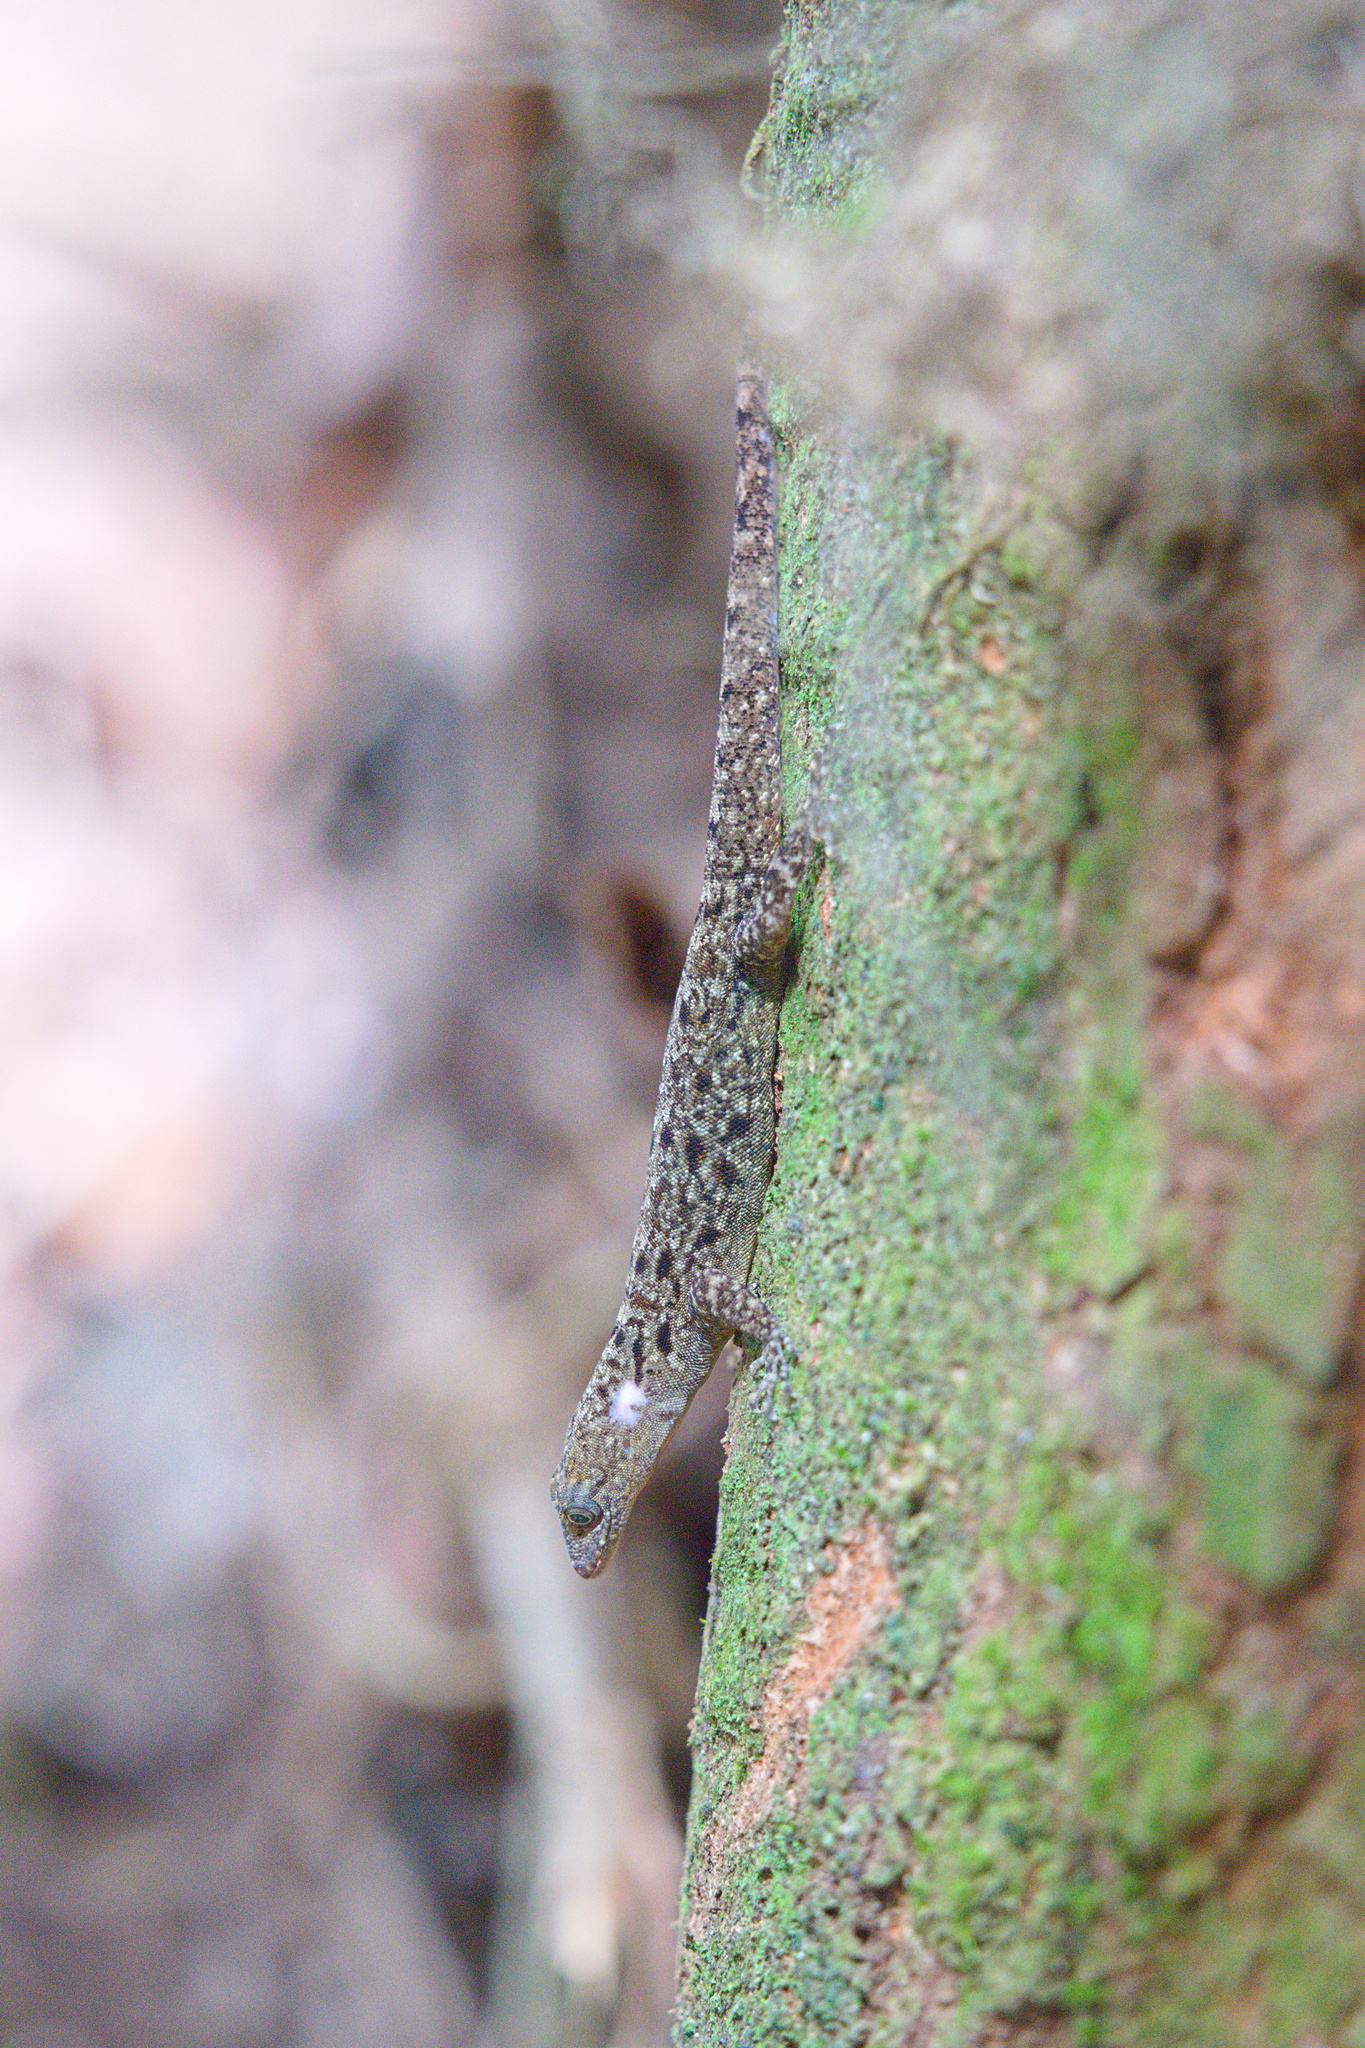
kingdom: Animalia
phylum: Chordata
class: Squamata
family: Sphaerodactylidae
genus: Gonatodes
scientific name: Gonatodes albogularis
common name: Yellow-headed gecko
